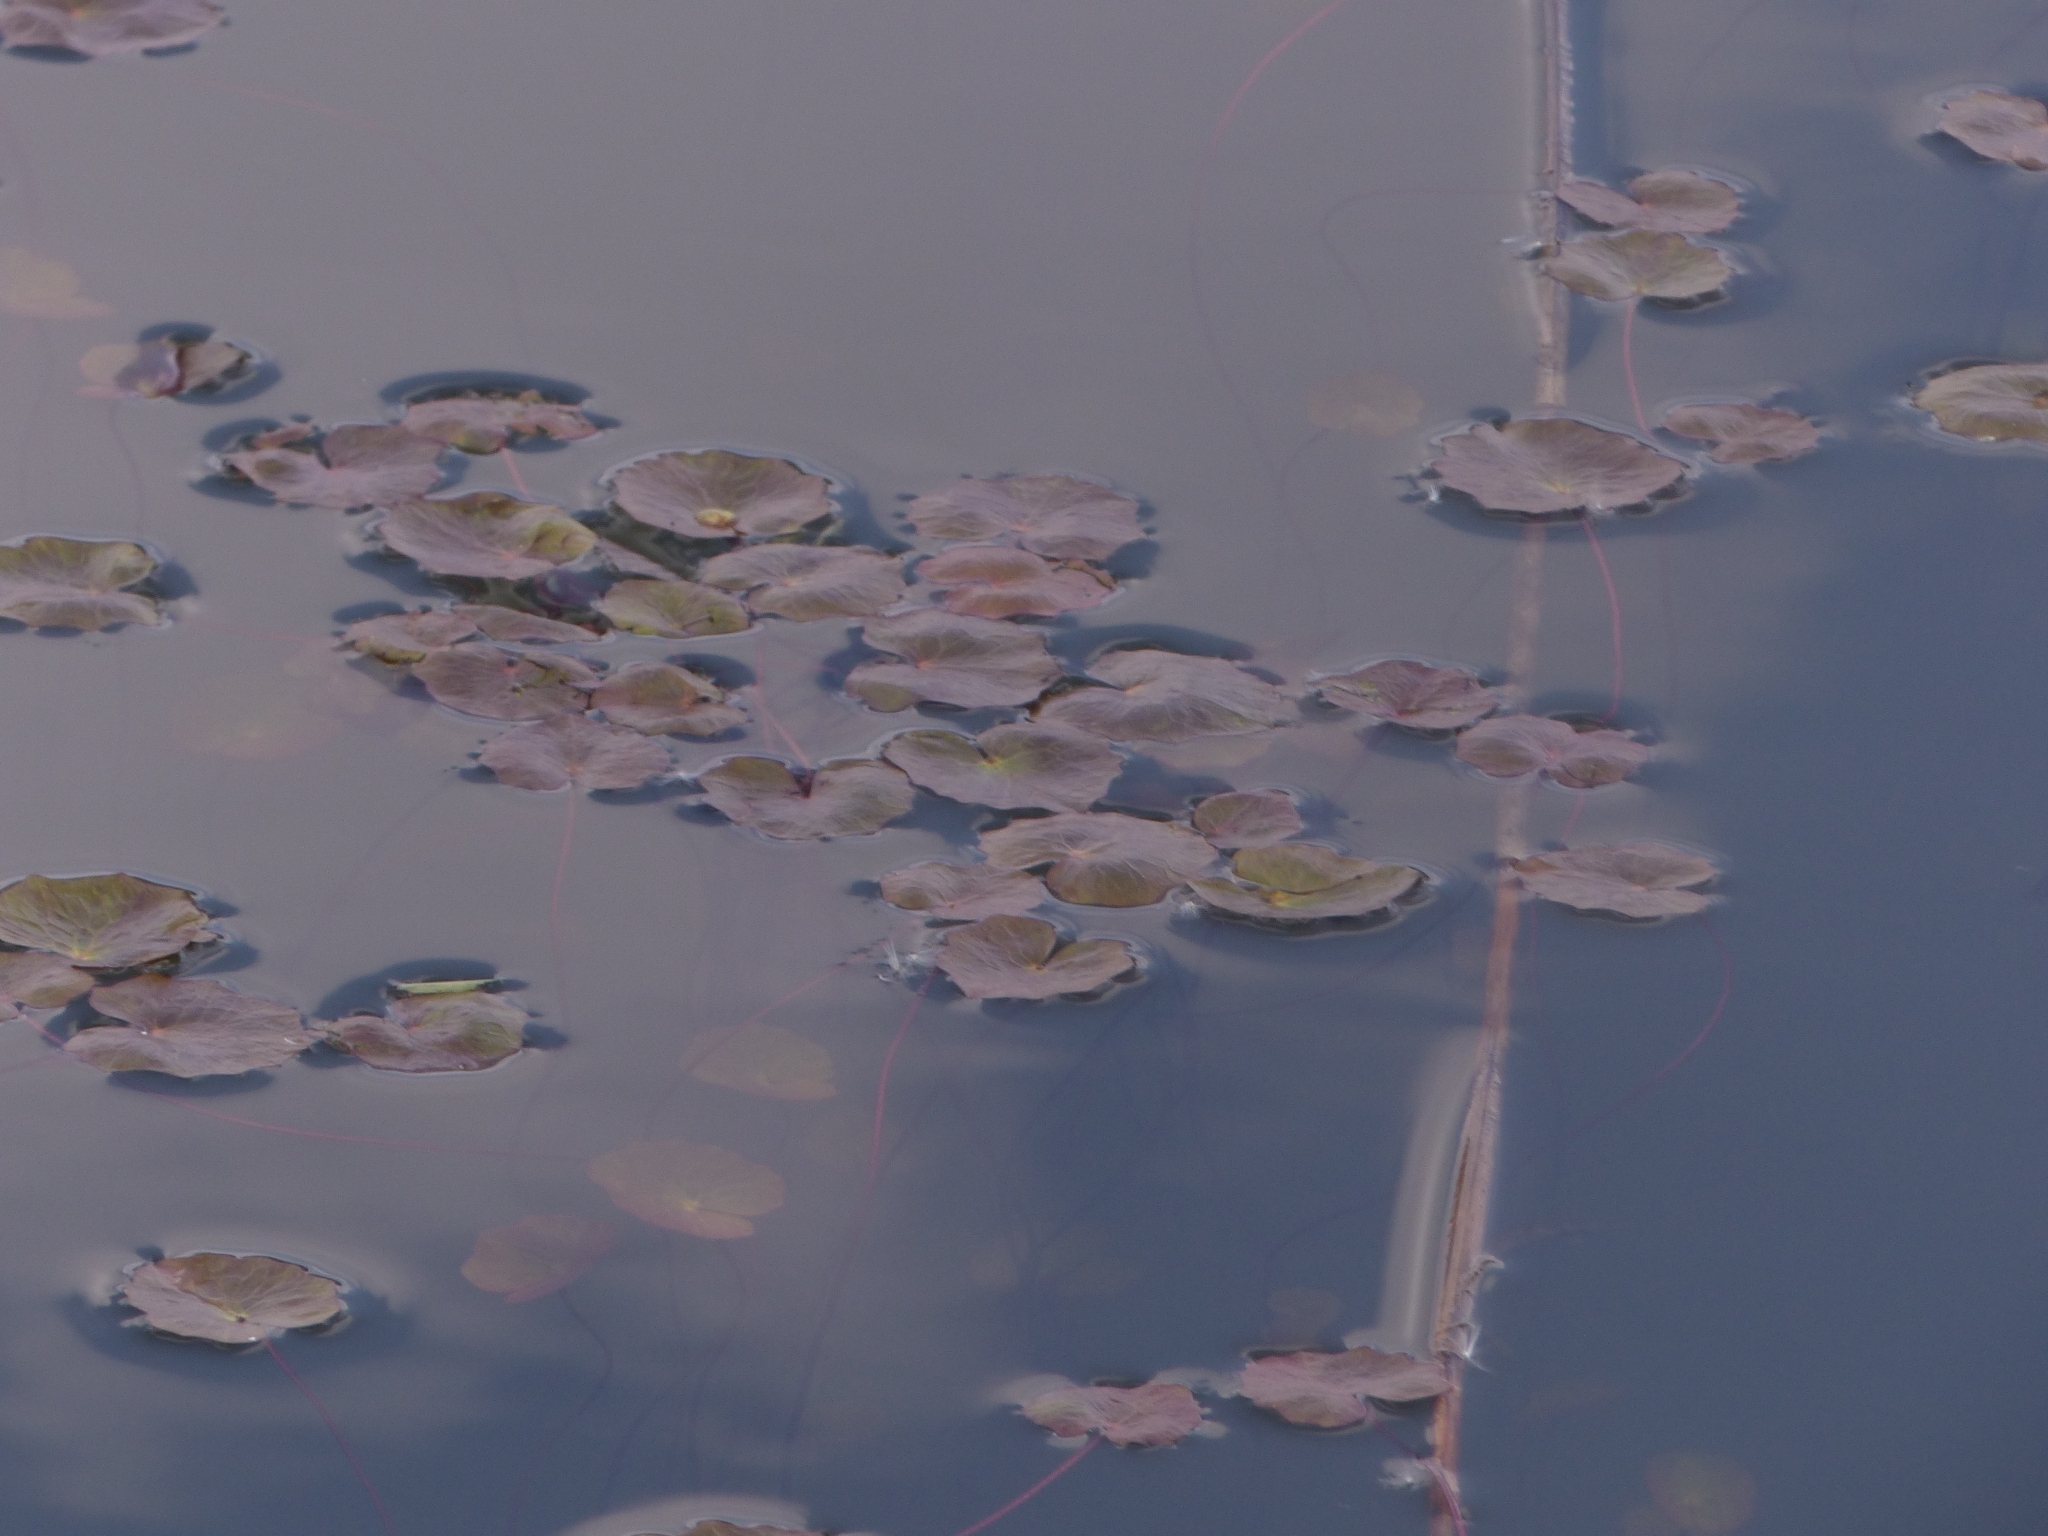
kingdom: Plantae
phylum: Tracheophyta
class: Magnoliopsida
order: Asterales
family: Menyanthaceae
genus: Nymphoides
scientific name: Nymphoides peltata
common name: Fringed water-lily
